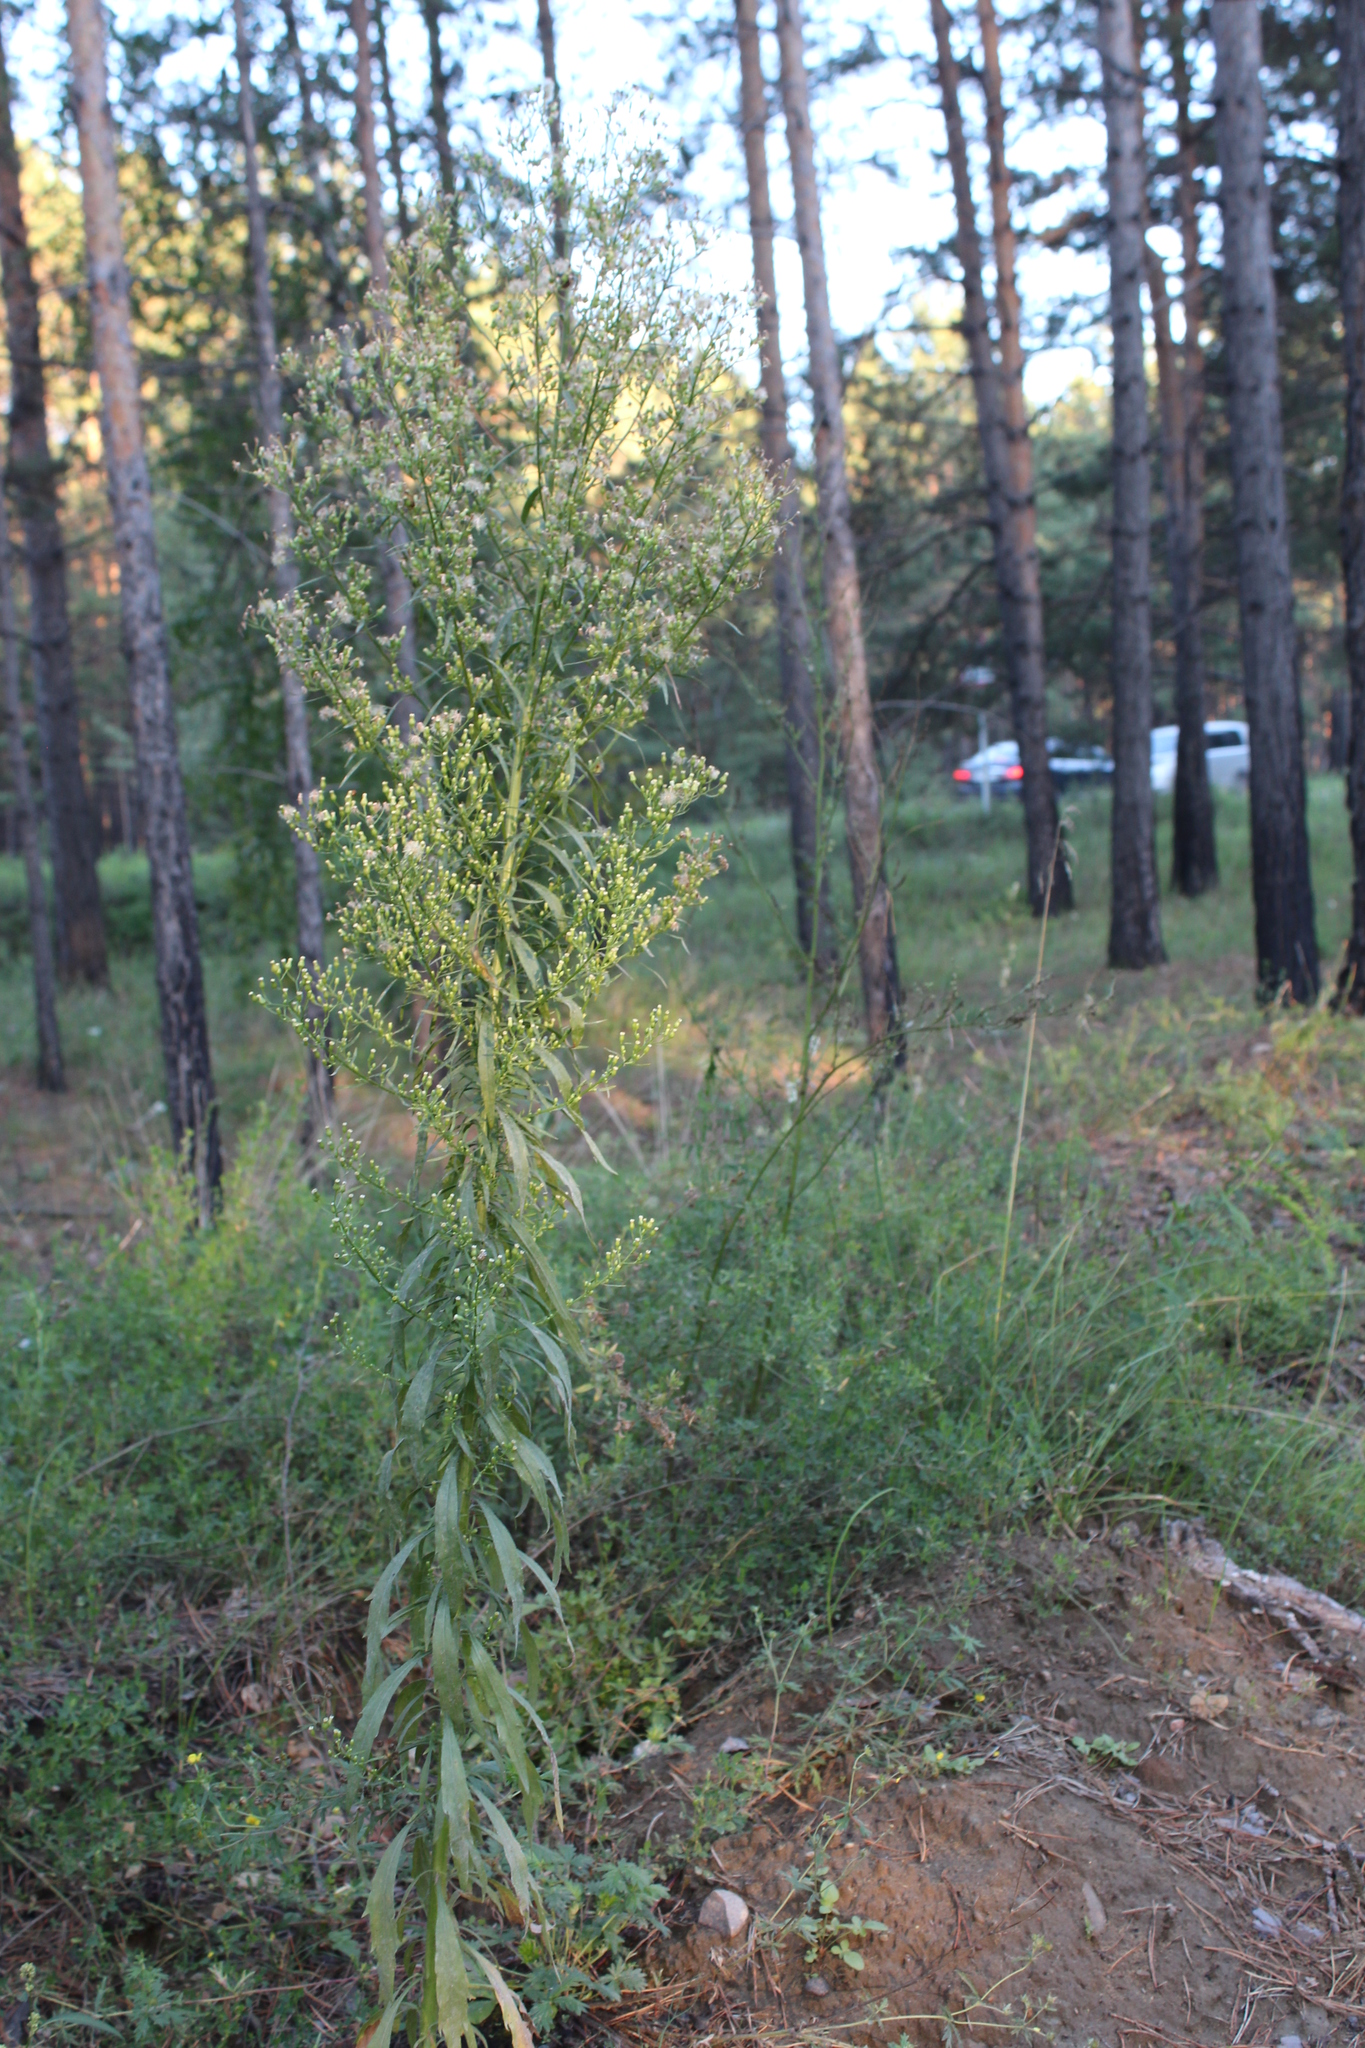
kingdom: Plantae
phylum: Tracheophyta
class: Magnoliopsida
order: Asterales
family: Asteraceae
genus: Erigeron
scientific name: Erigeron canadensis
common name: Canadian fleabane
